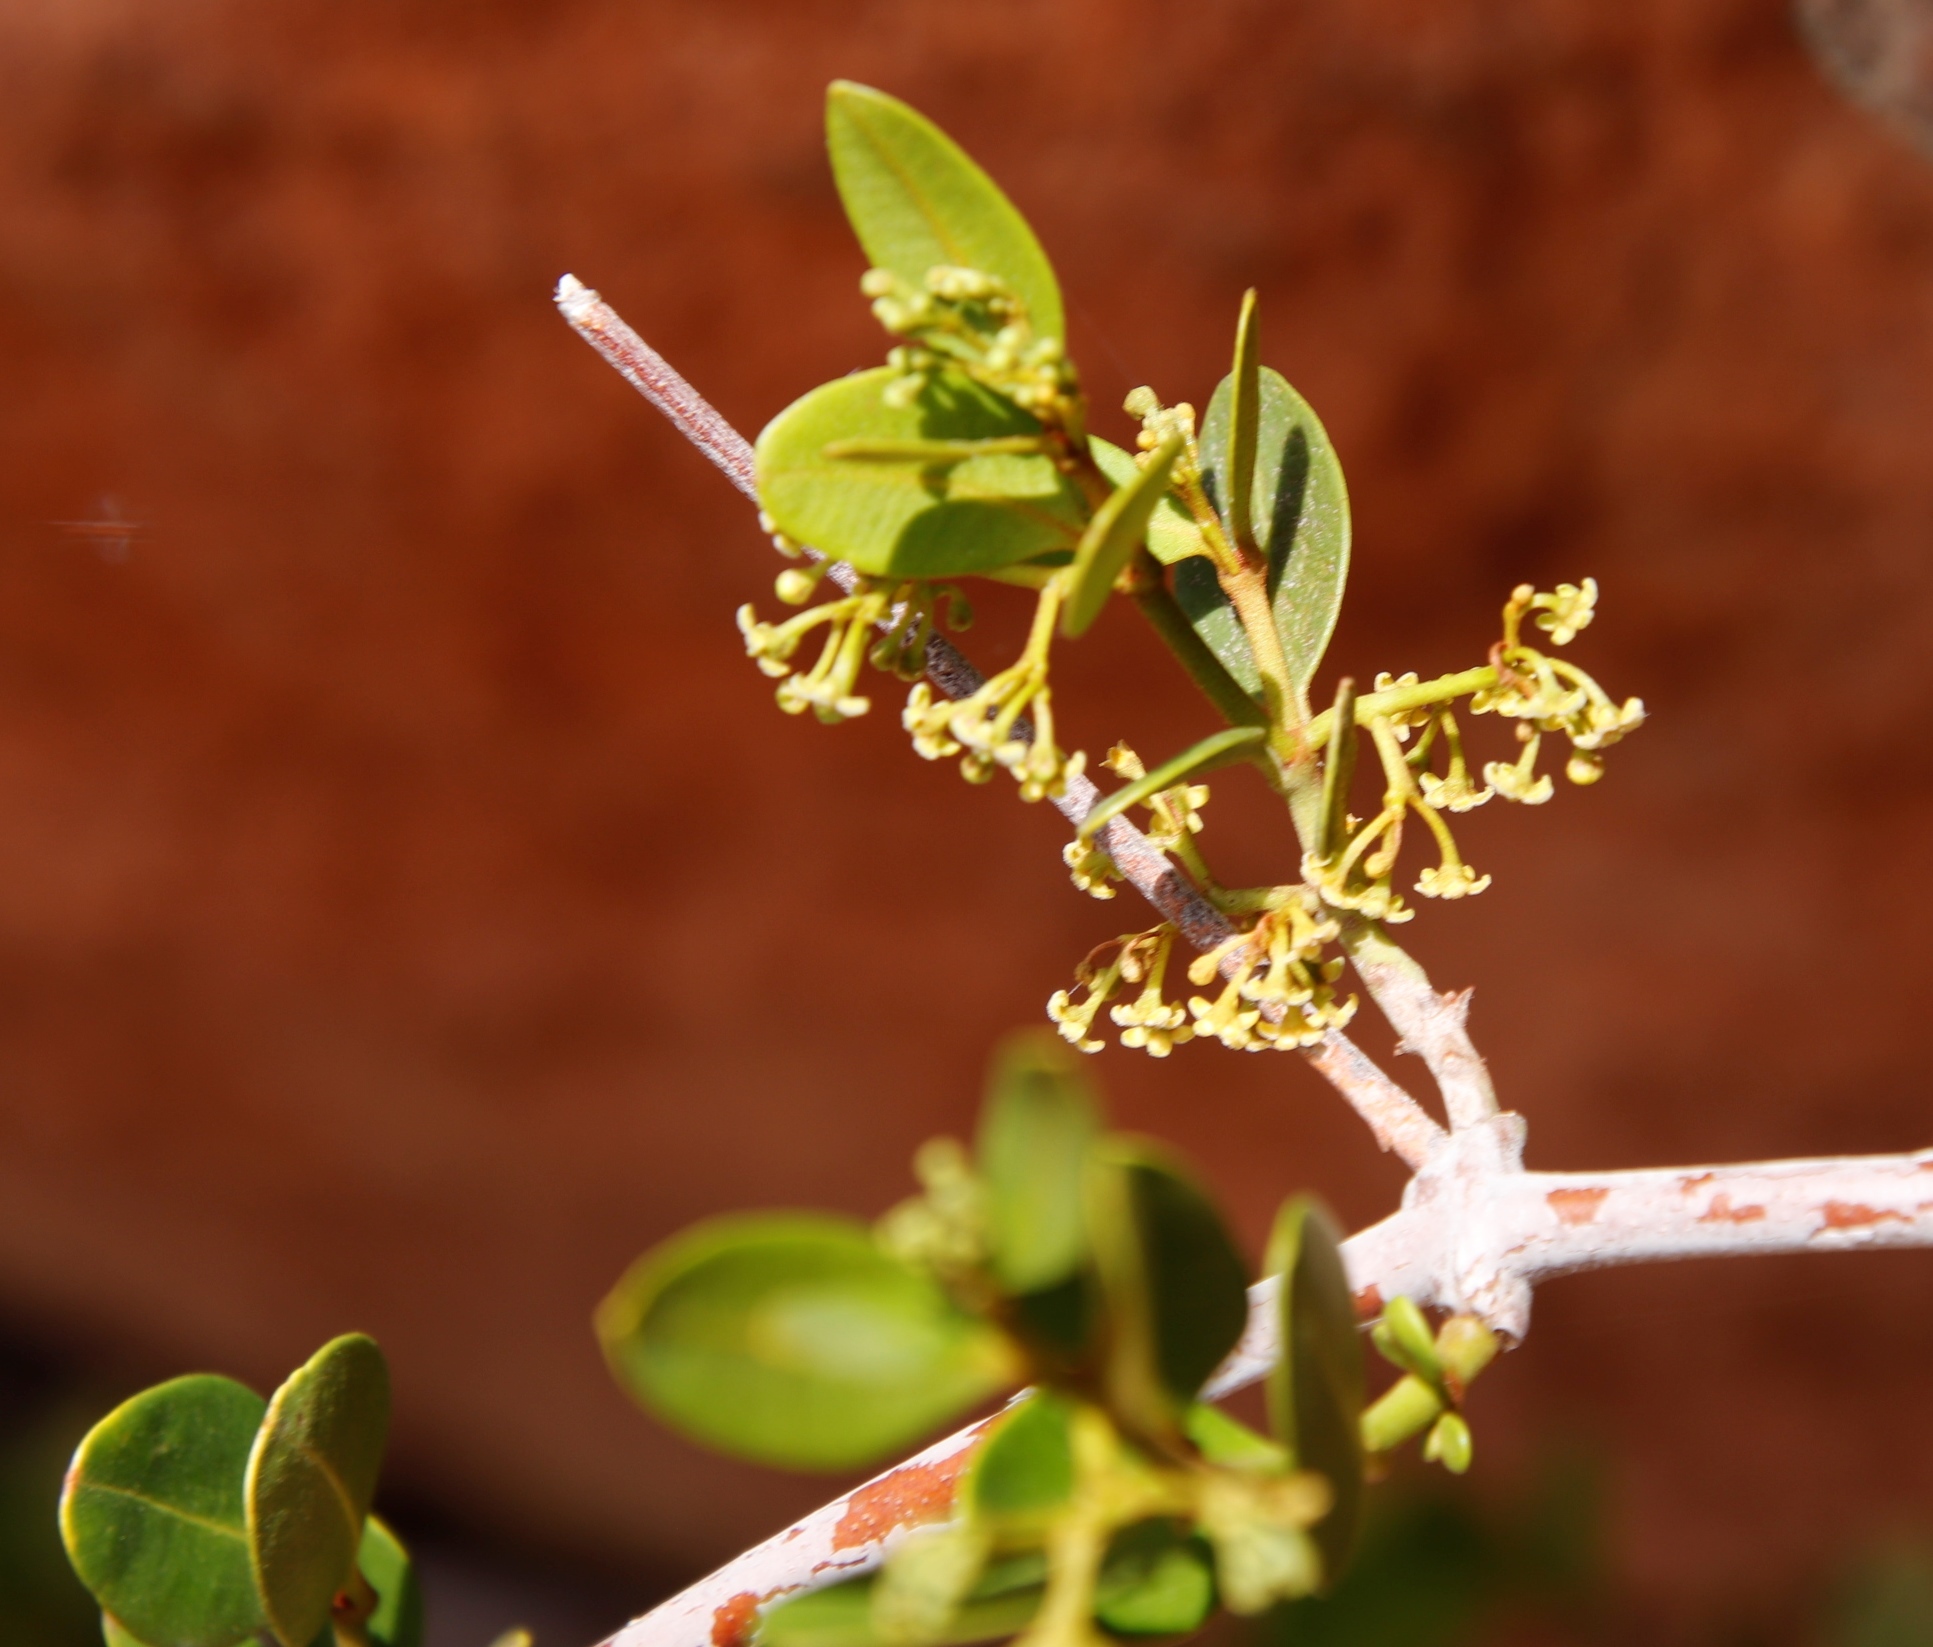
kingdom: Plantae
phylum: Tracheophyta
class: Magnoliopsida
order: Gentianales
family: Apocynaceae
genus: Secamone
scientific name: Secamone alpini
